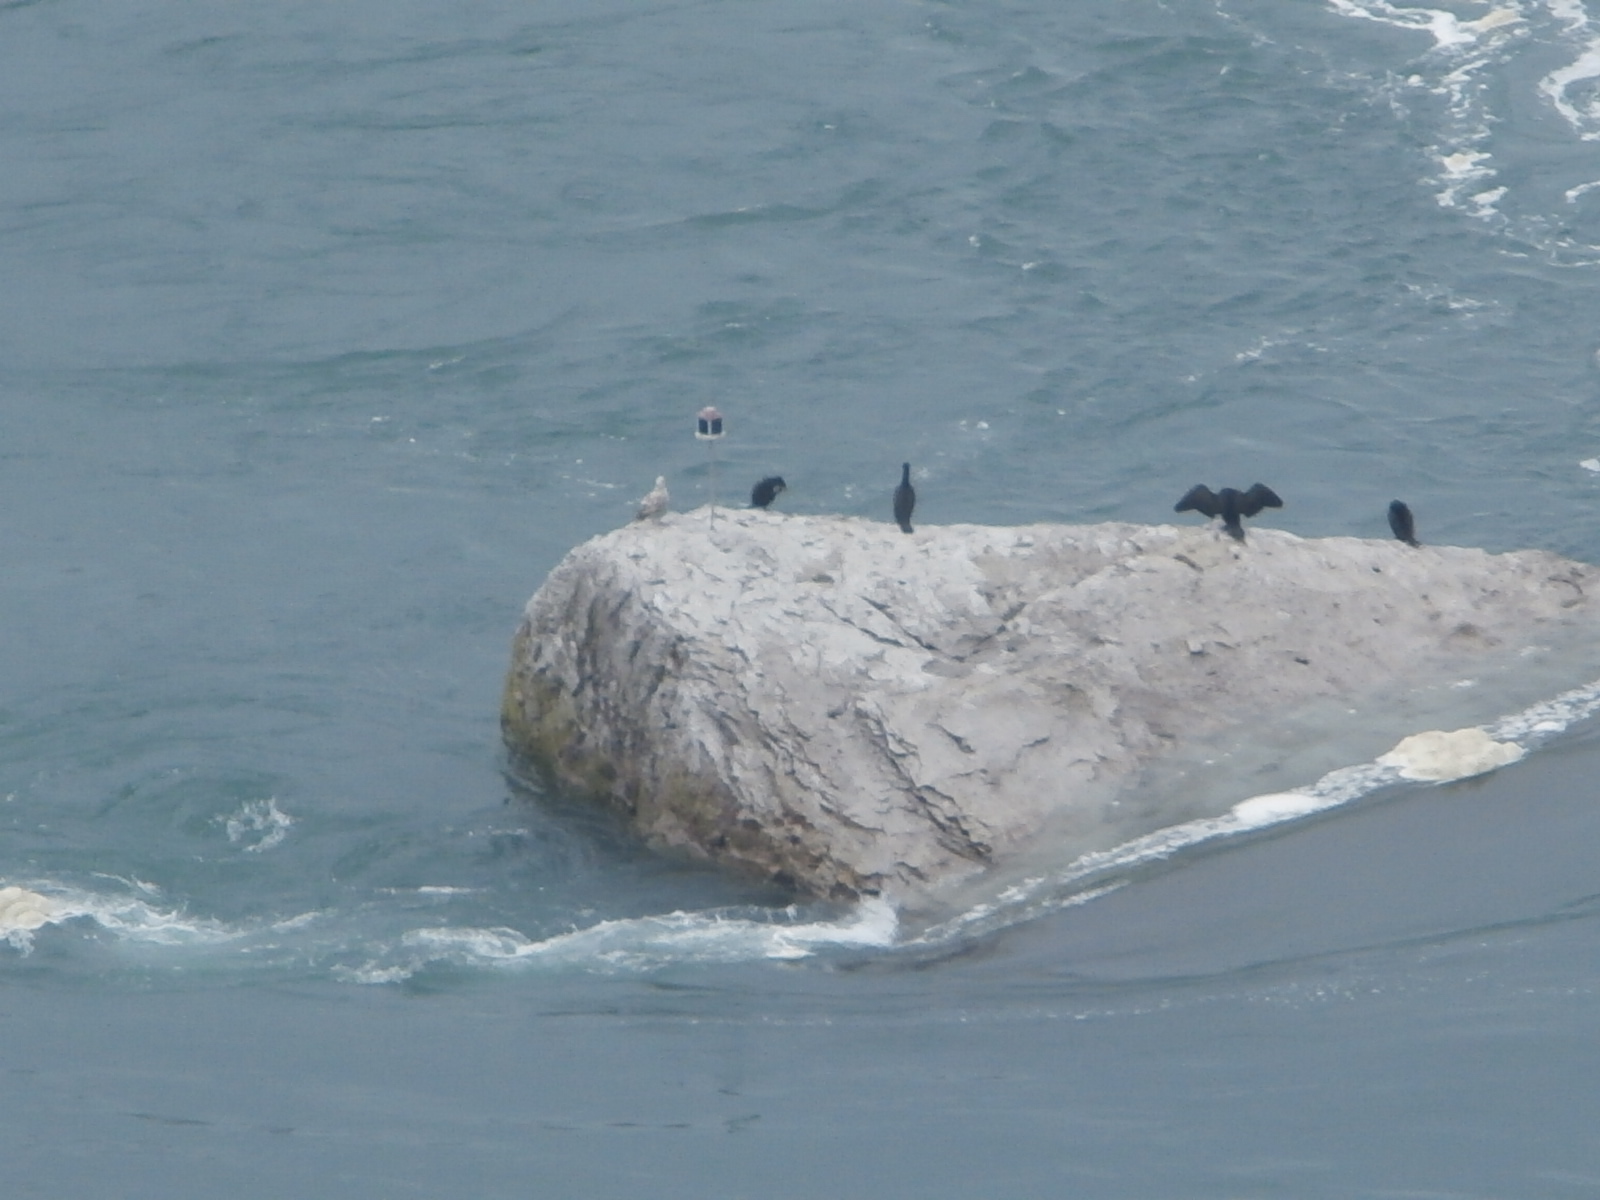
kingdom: Animalia
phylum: Chordata
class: Aves
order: Suliformes
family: Phalacrocoracidae
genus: Phalacrocorax
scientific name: Phalacrocorax auritus
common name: Double-crested cormorant
